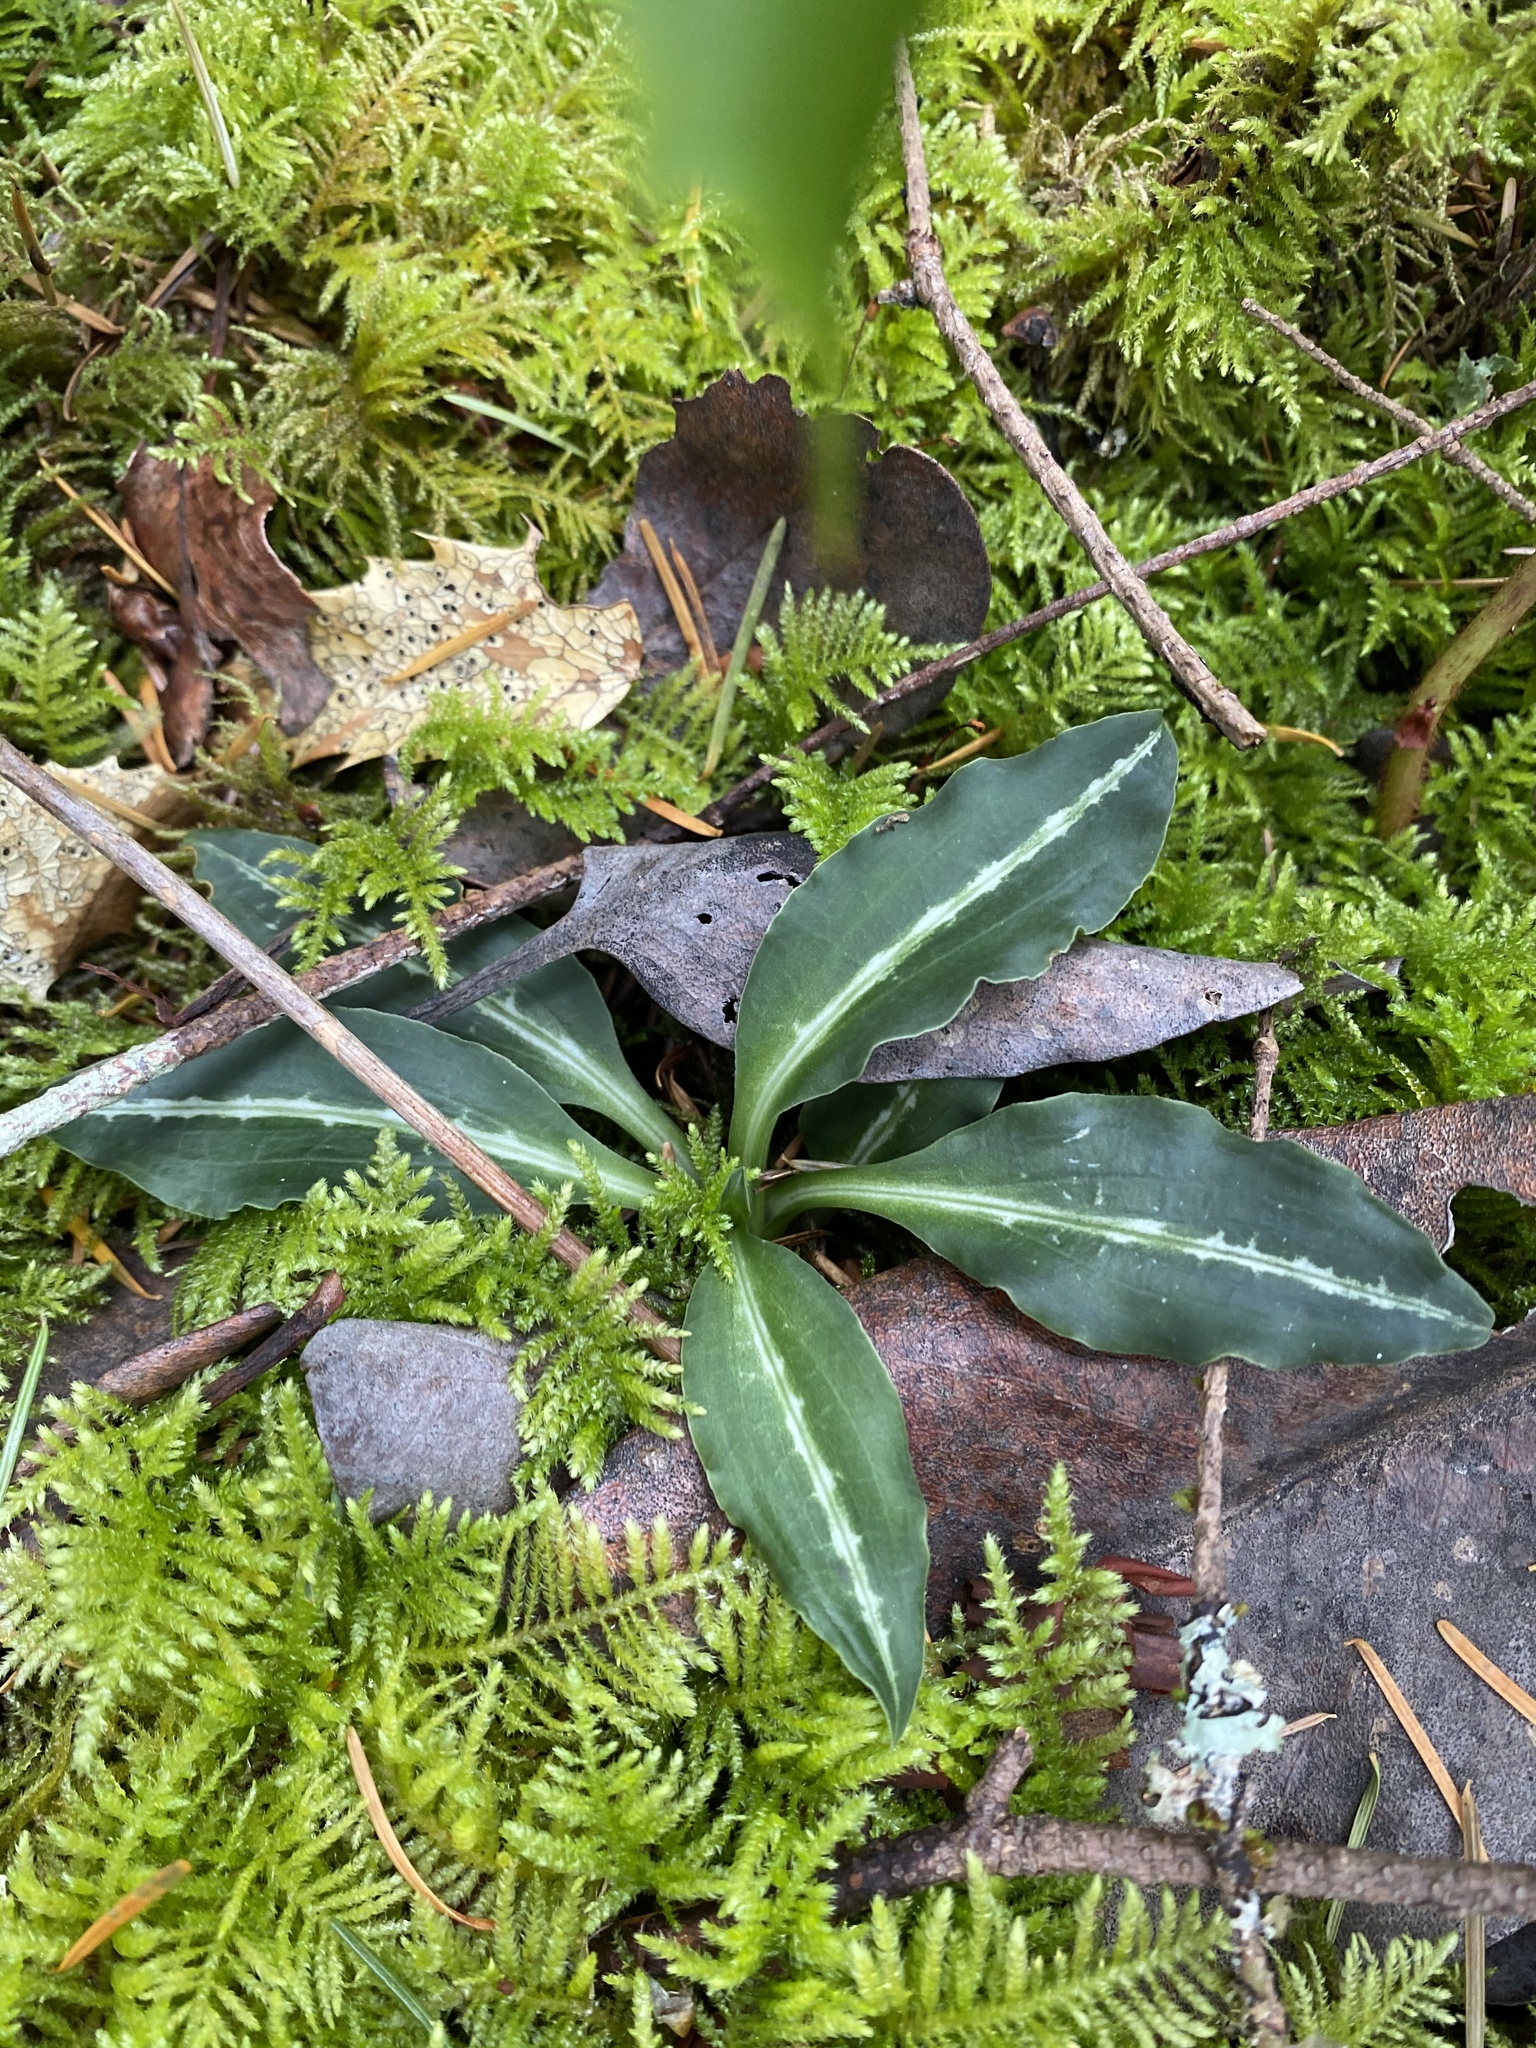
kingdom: Plantae
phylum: Tracheophyta
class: Liliopsida
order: Asparagales
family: Orchidaceae
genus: Goodyera
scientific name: Goodyera oblongifolia
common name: Giant rattlesnake-plantain
